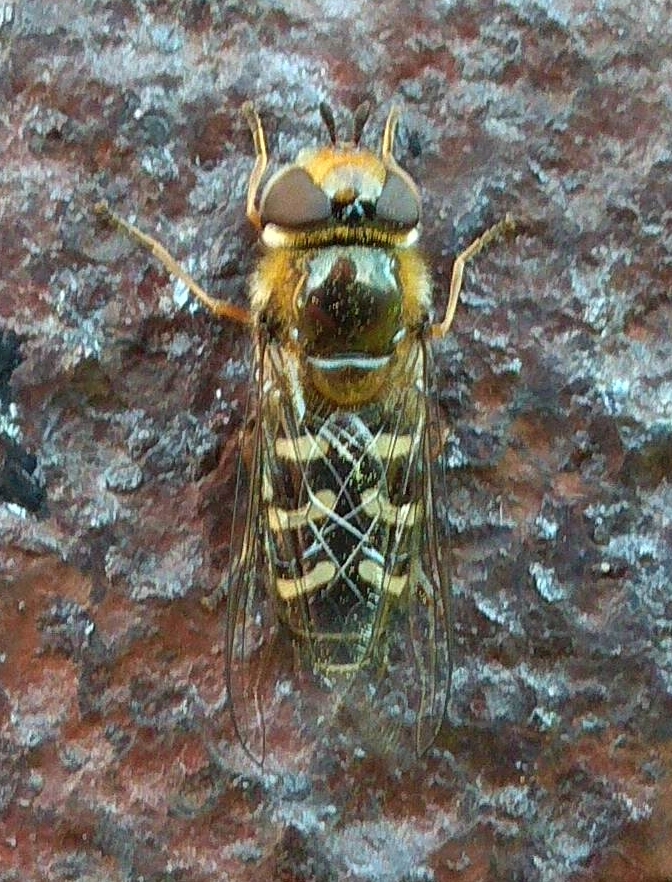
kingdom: Animalia
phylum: Arthropoda
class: Insecta
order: Diptera
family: Syrphidae
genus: Scaeva
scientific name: Scaeva pyrastri
